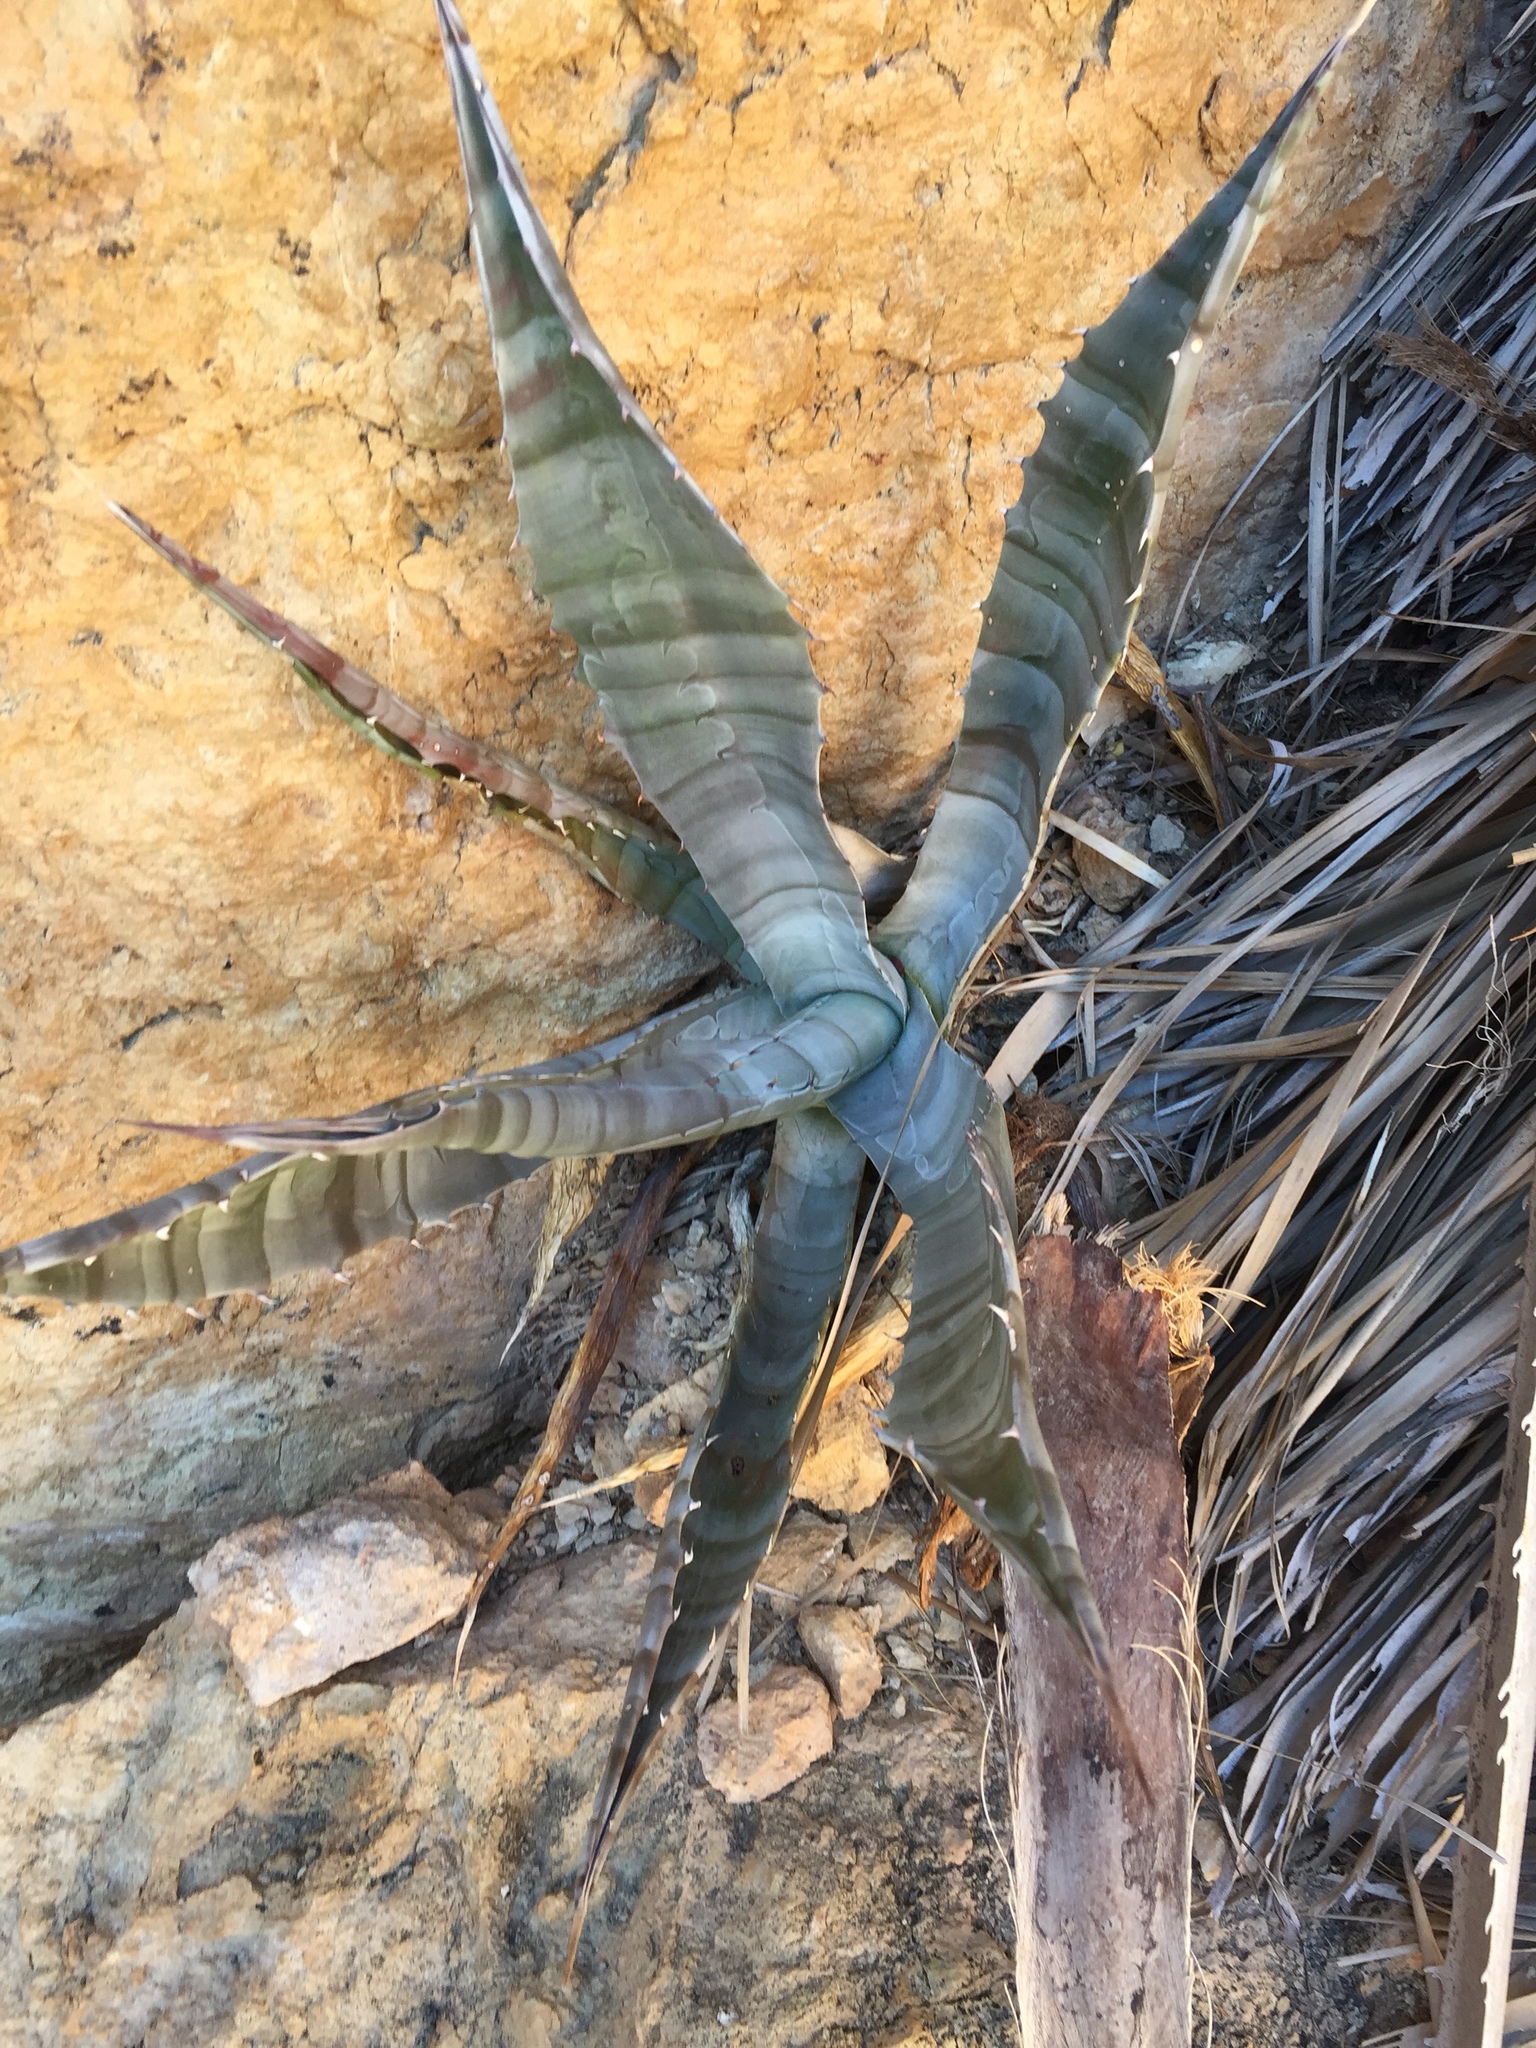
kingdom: Plantae
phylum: Tracheophyta
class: Liliopsida
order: Asparagales
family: Asparagaceae
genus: Agave
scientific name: Agave colorata
